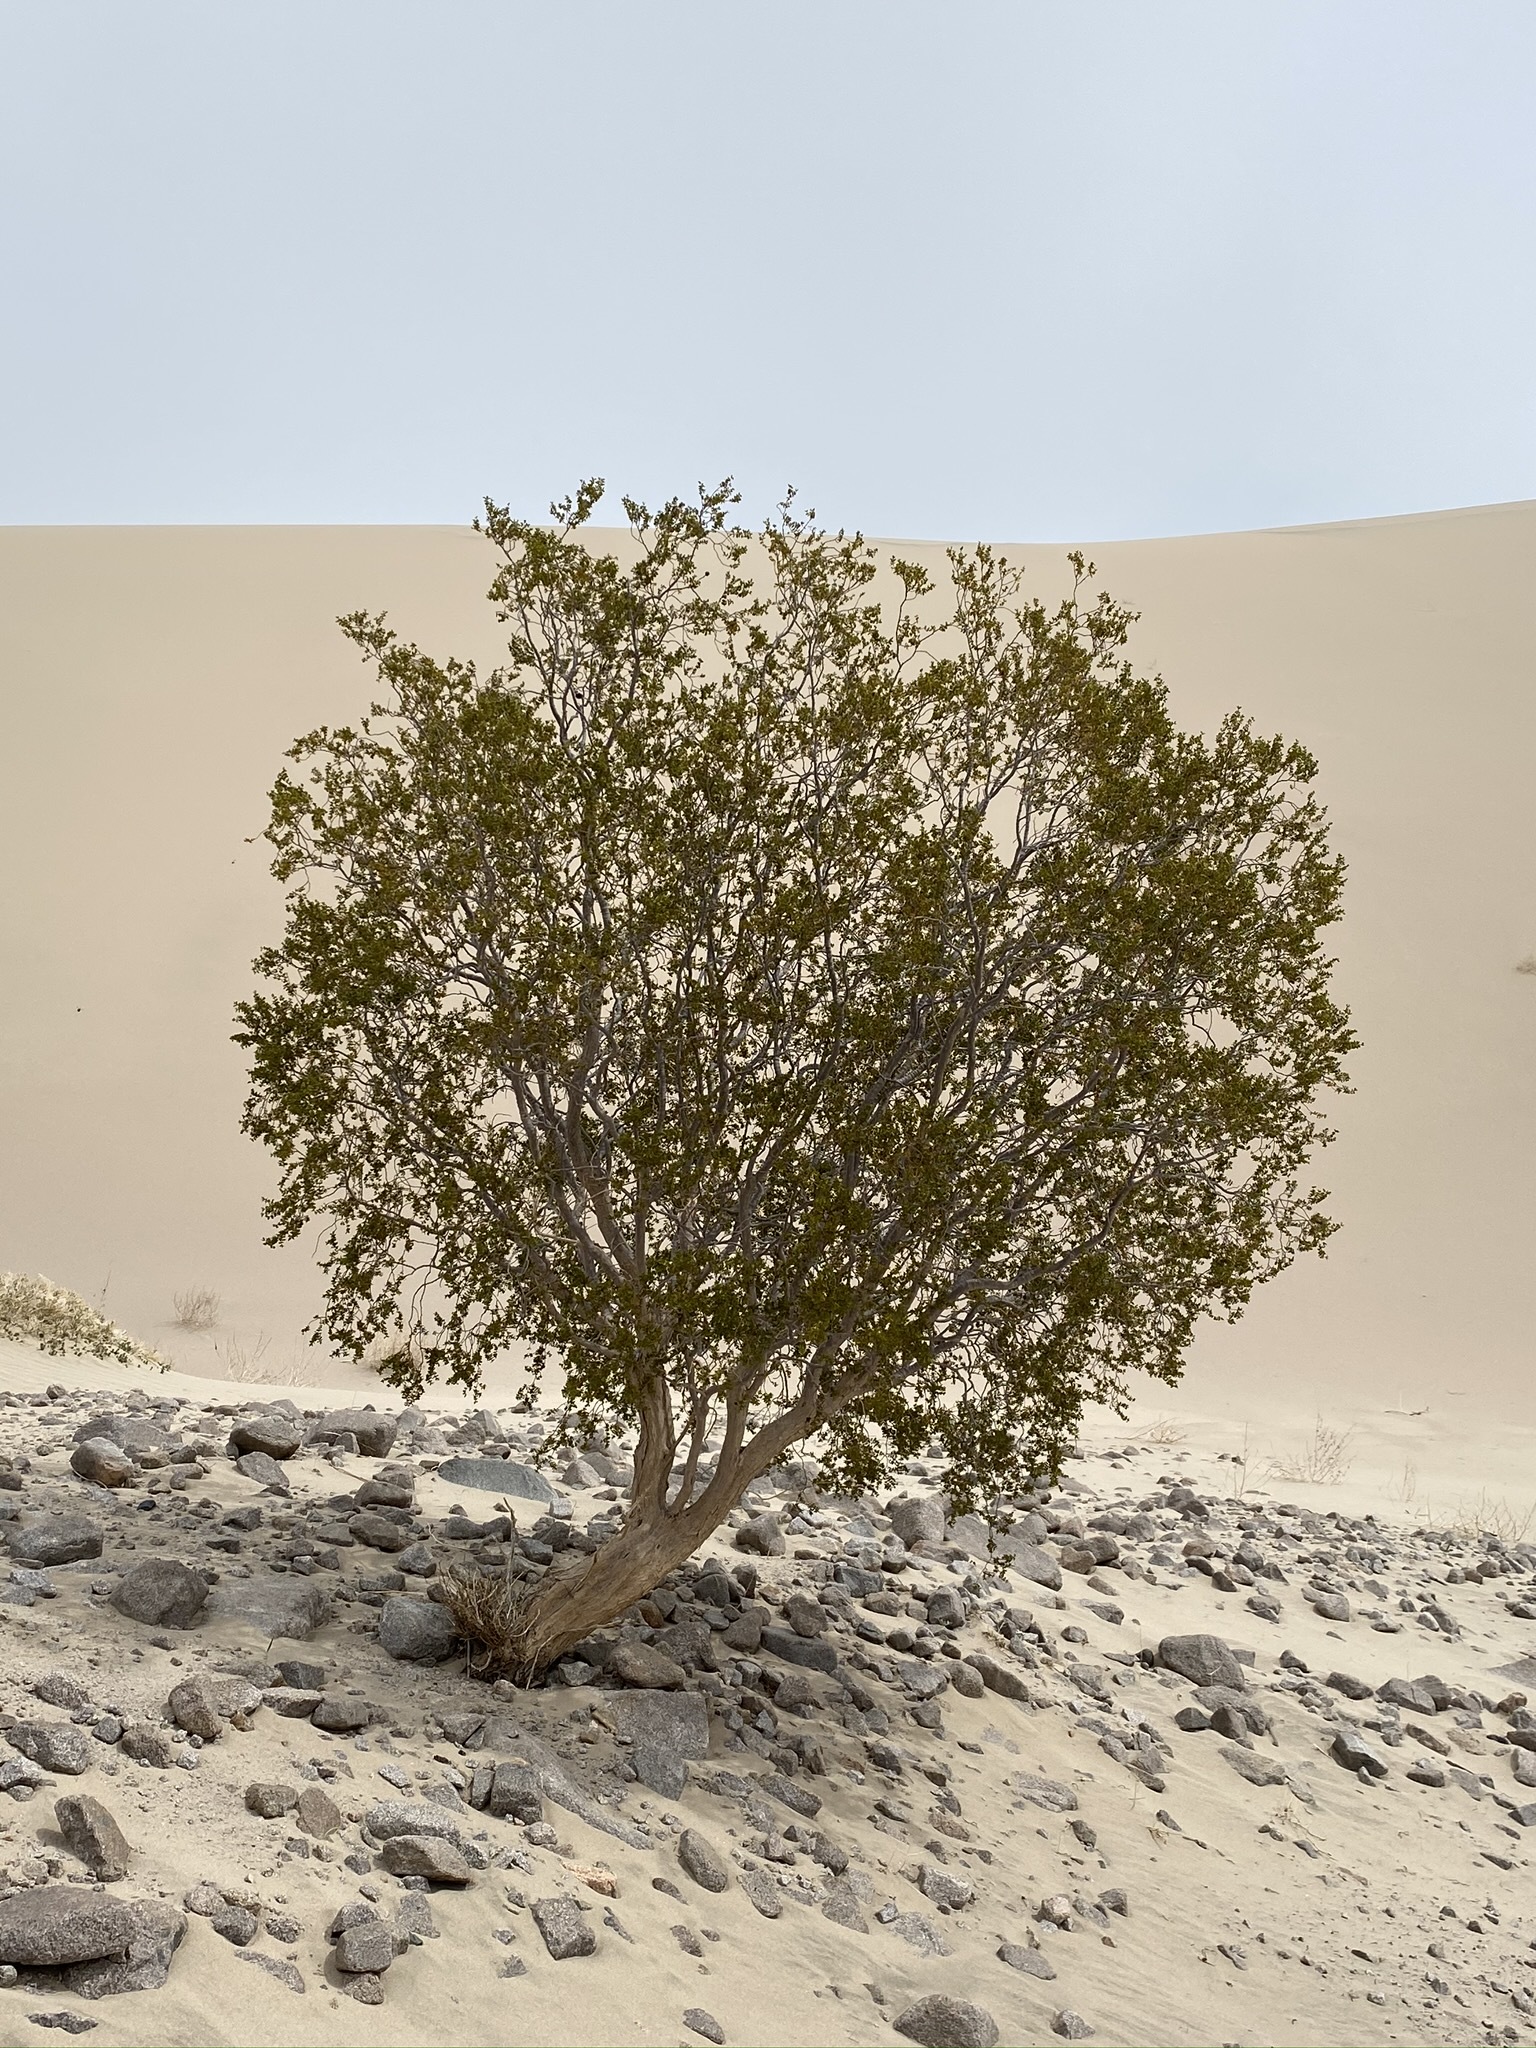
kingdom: Plantae
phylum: Tracheophyta
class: Magnoliopsida
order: Zygophyllales
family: Zygophyllaceae
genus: Larrea
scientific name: Larrea tridentata
